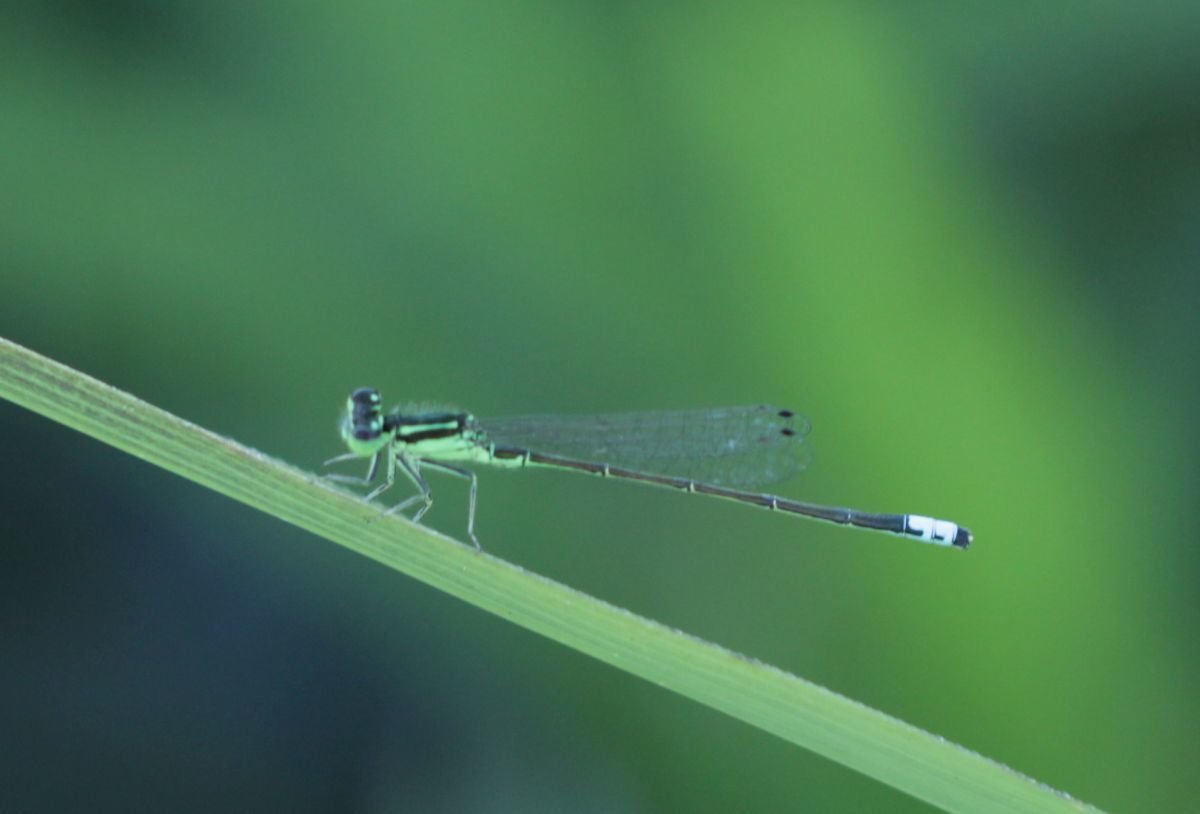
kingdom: Animalia
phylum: Arthropoda
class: Insecta
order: Odonata
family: Coenagrionidae
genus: Ischnura
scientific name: Ischnura verticalis
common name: Eastern forktail
